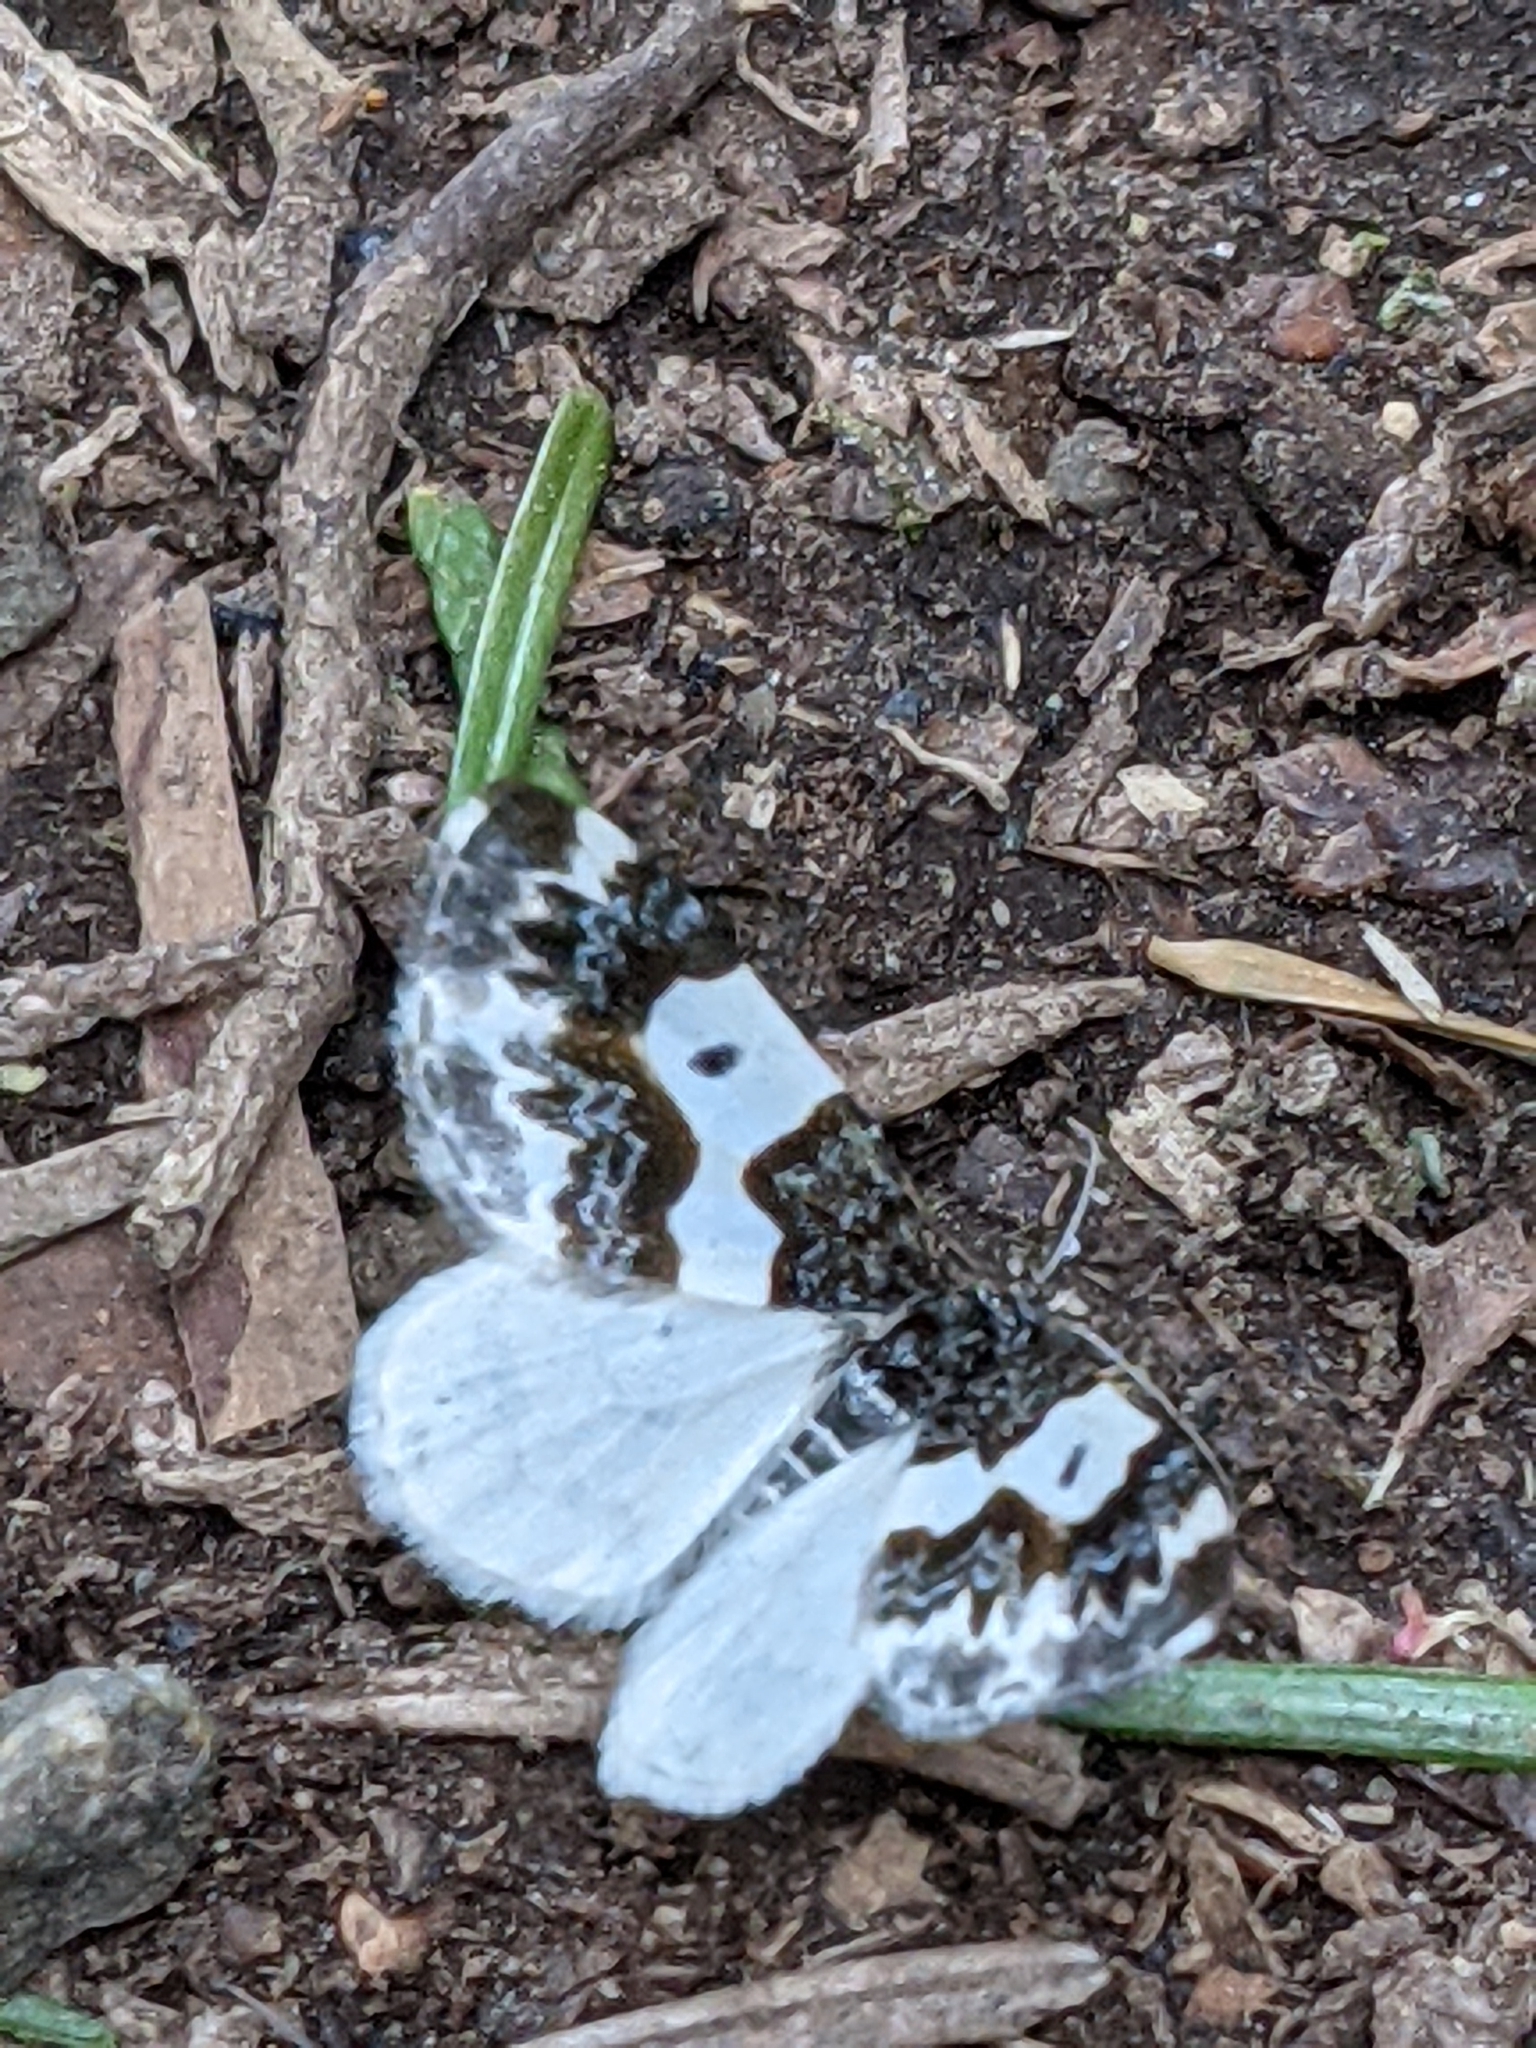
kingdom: Animalia
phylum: Arthropoda
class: Insecta
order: Lepidoptera
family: Geometridae
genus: Mesoleuca
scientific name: Mesoleuca gratulata
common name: Half-white carpet moth
